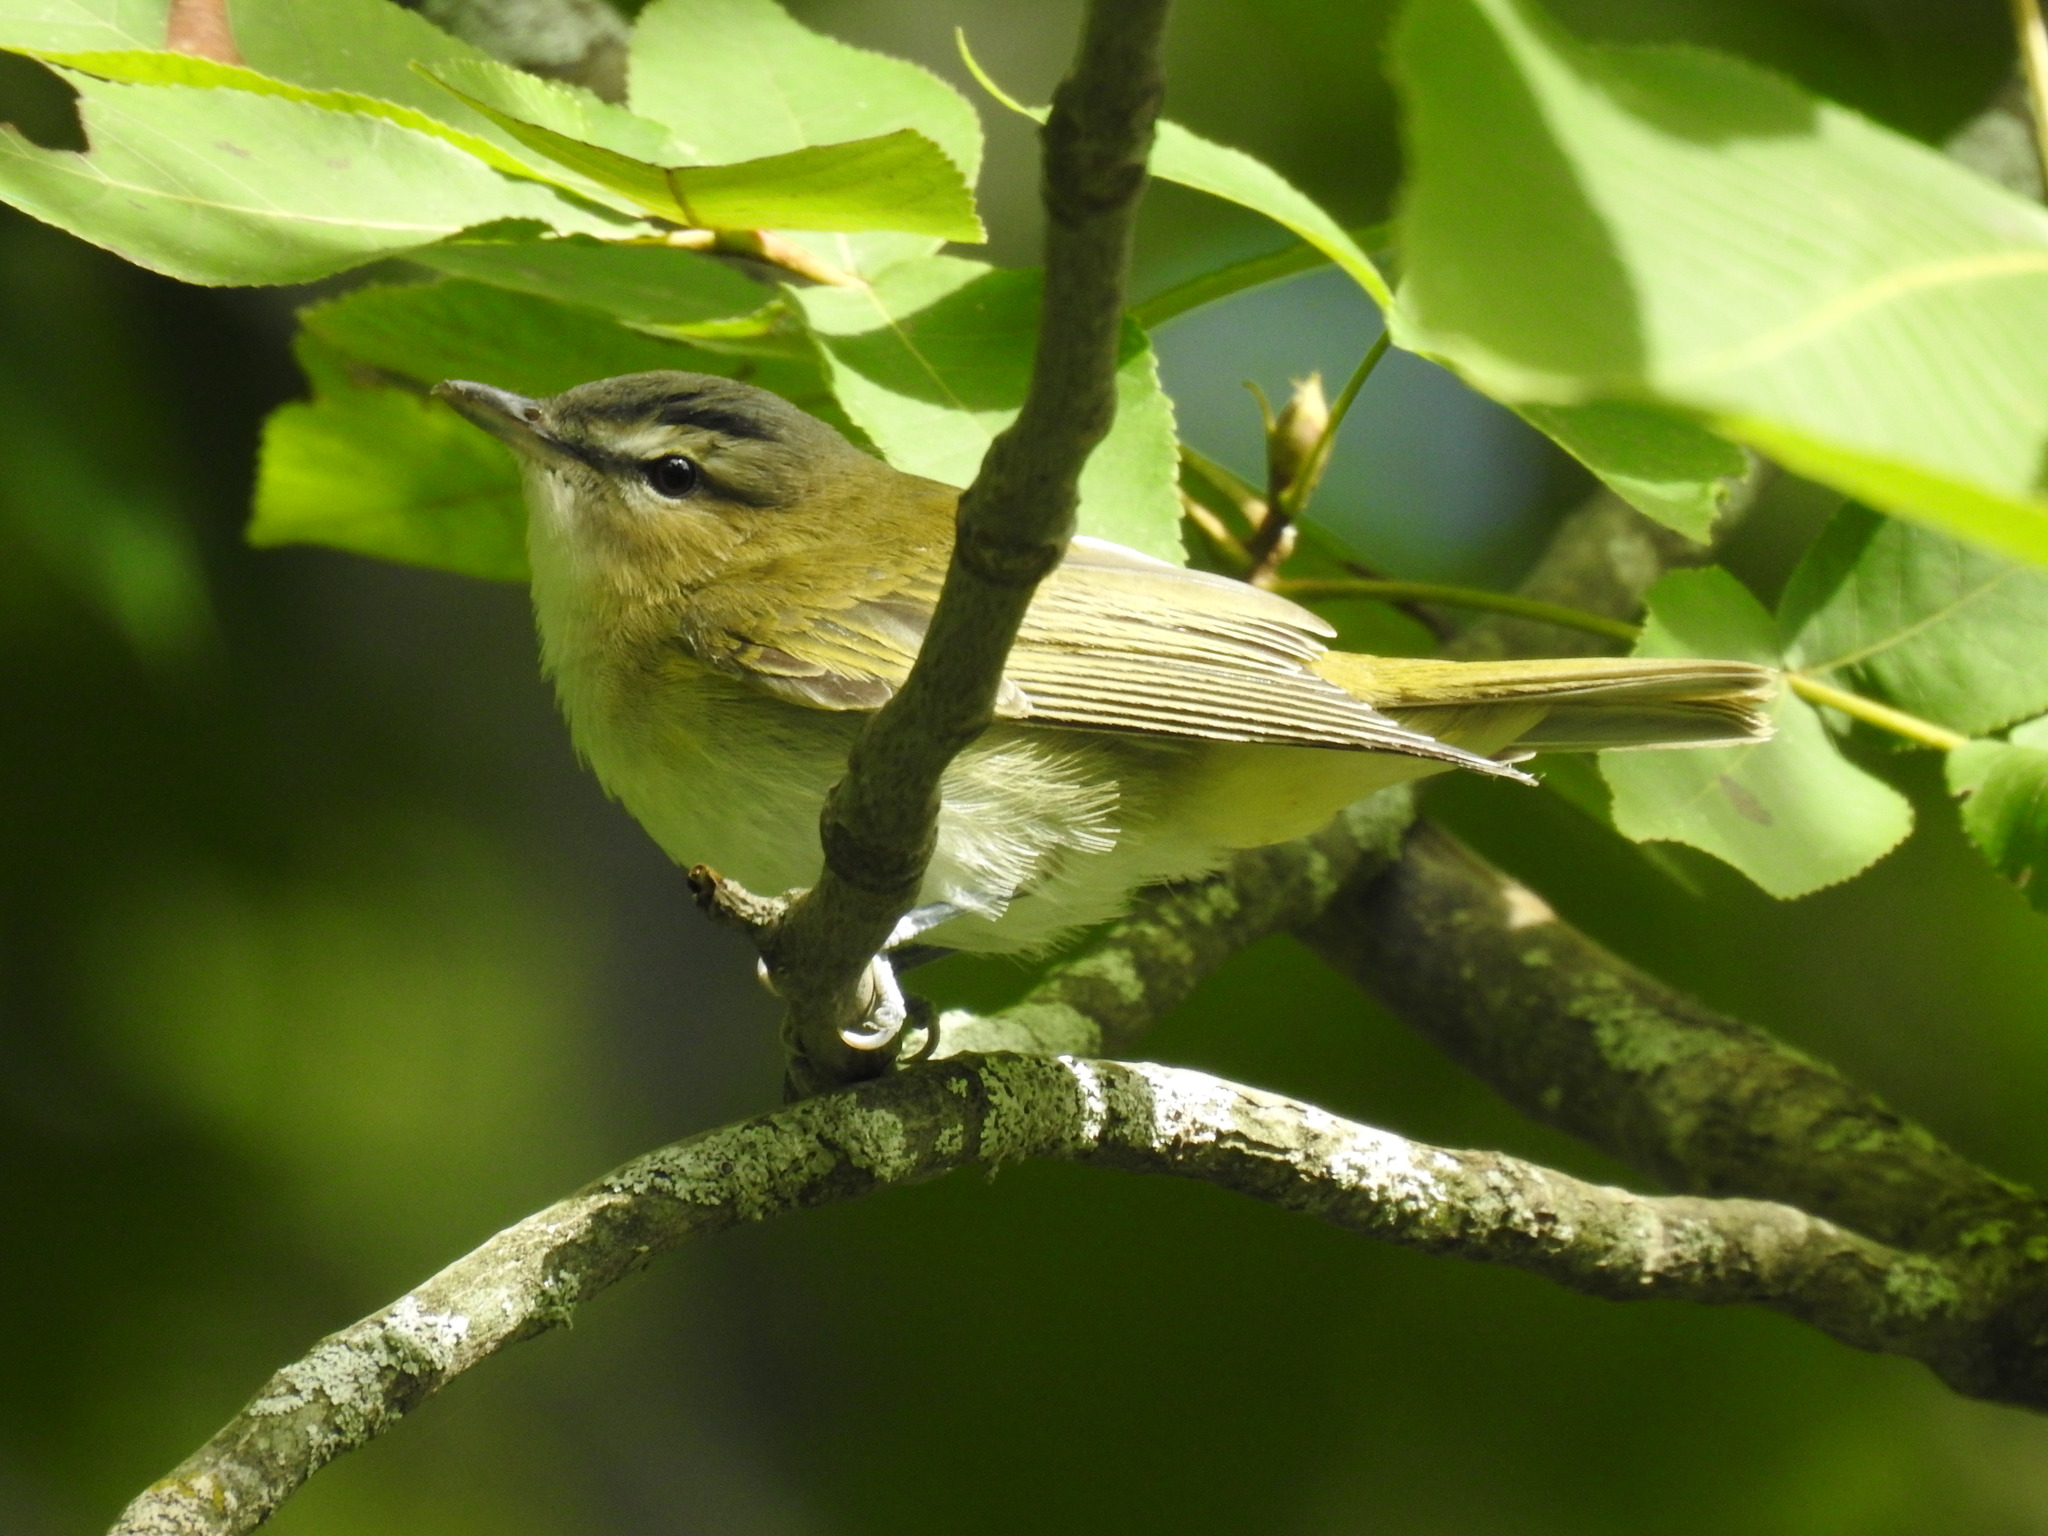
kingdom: Animalia
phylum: Chordata
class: Aves
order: Passeriformes
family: Vireonidae
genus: Vireo
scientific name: Vireo olivaceus
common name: Red-eyed vireo
